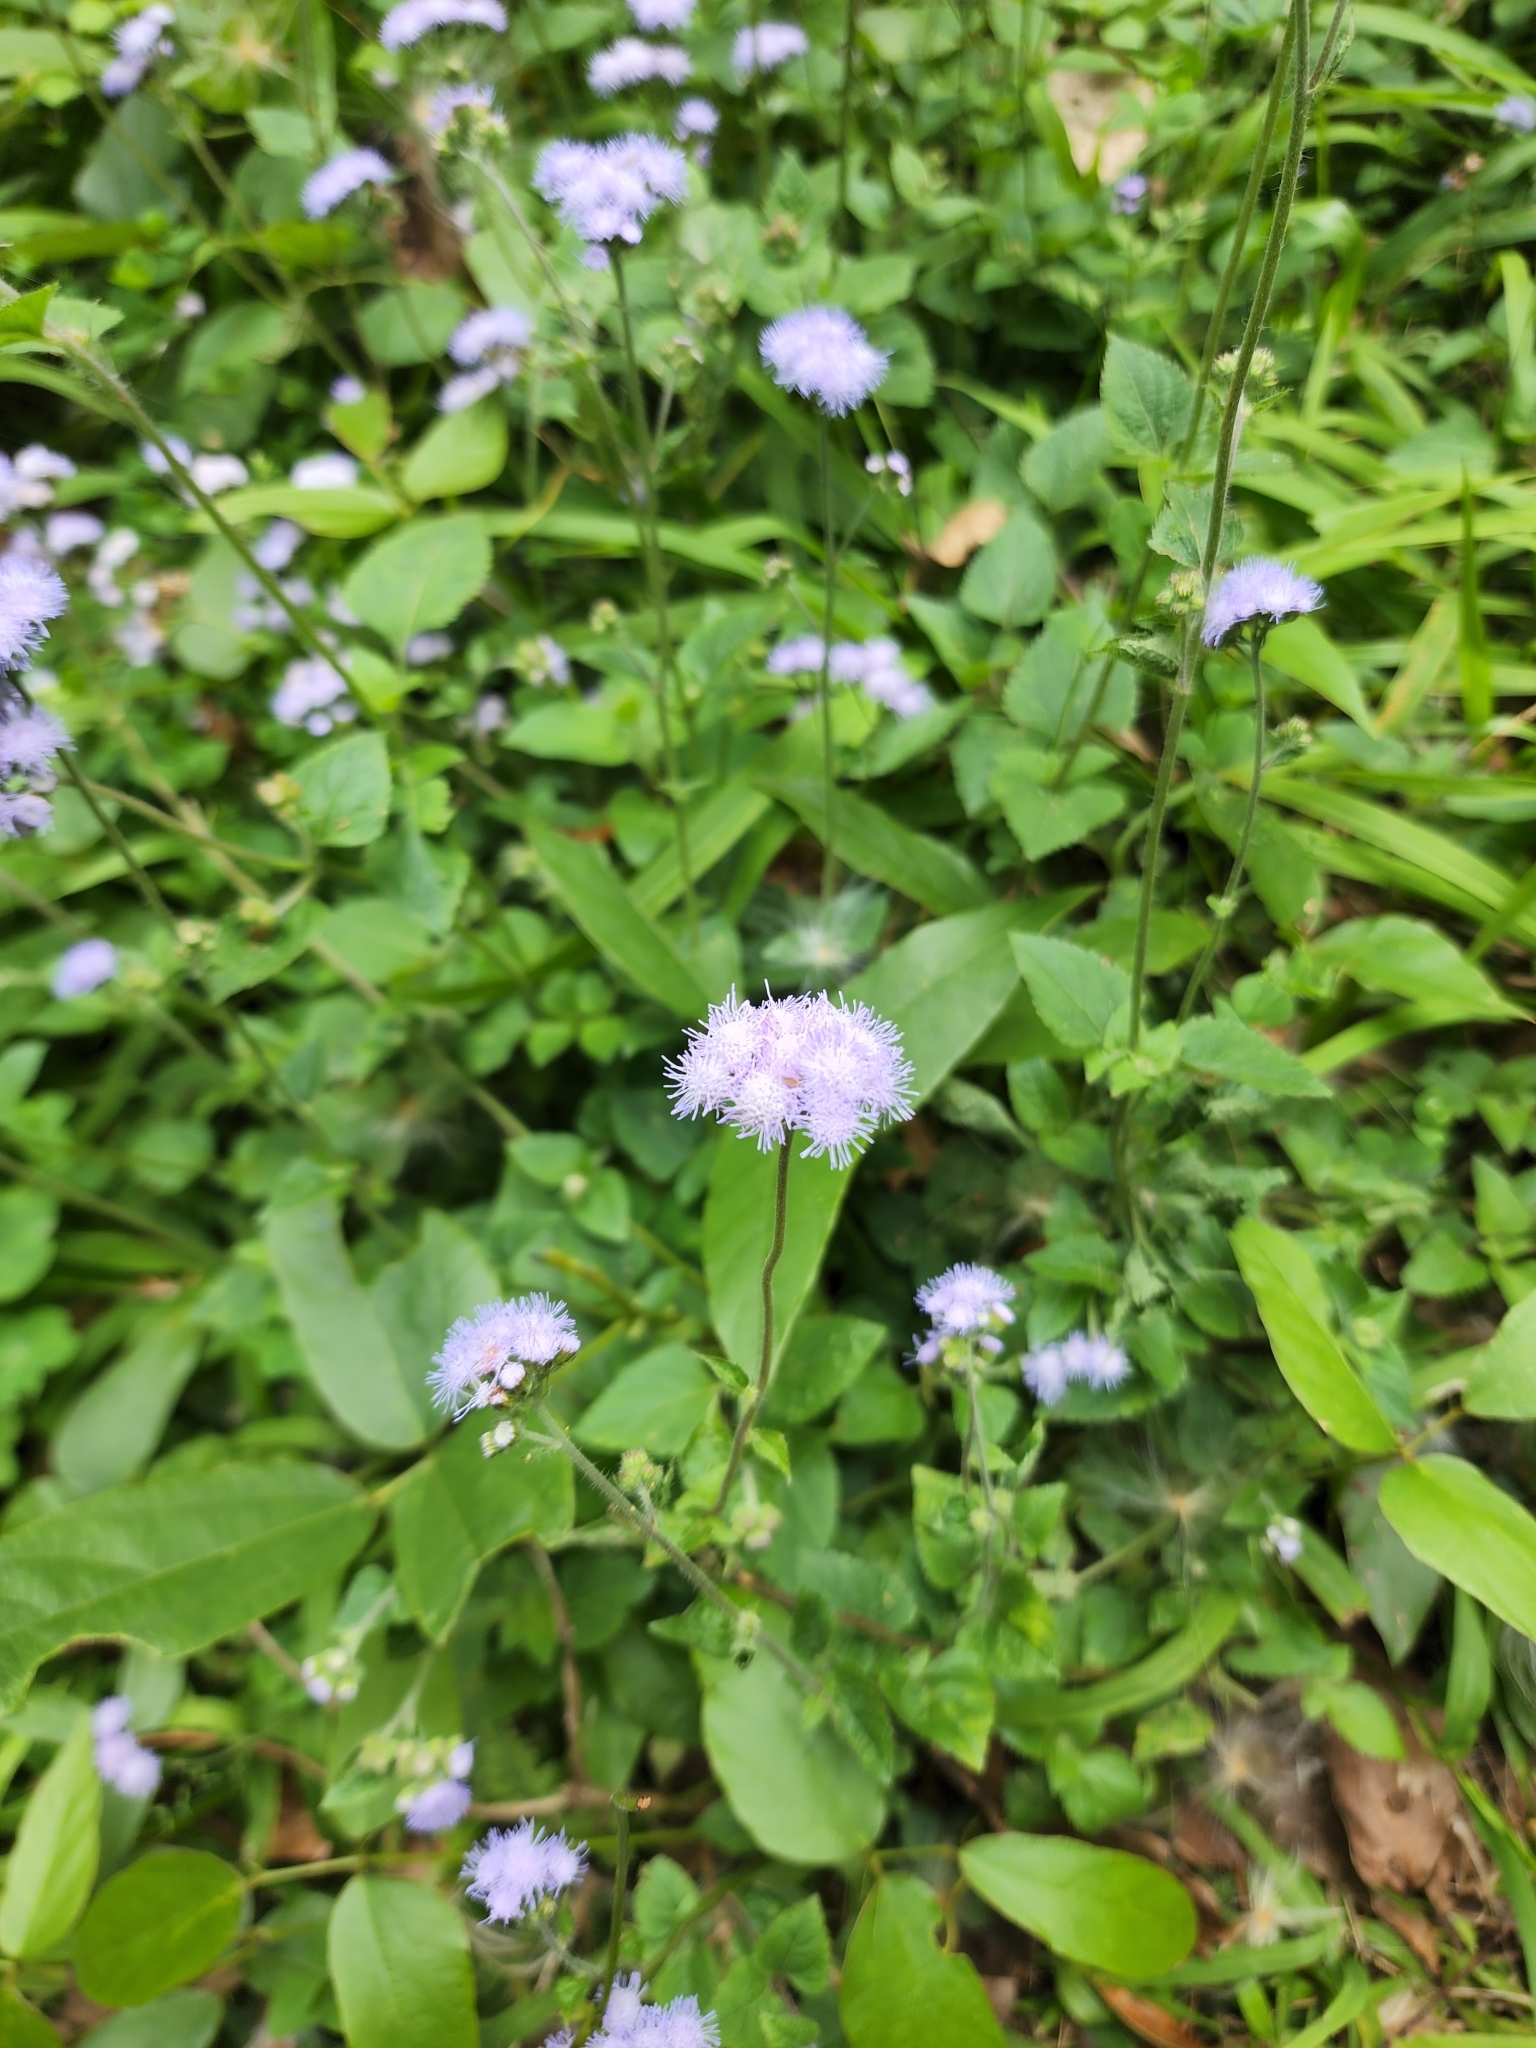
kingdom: Plantae
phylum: Tracheophyta
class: Magnoliopsida
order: Asterales
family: Asteraceae
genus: Ageratum
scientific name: Ageratum houstonianum
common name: Bluemink
